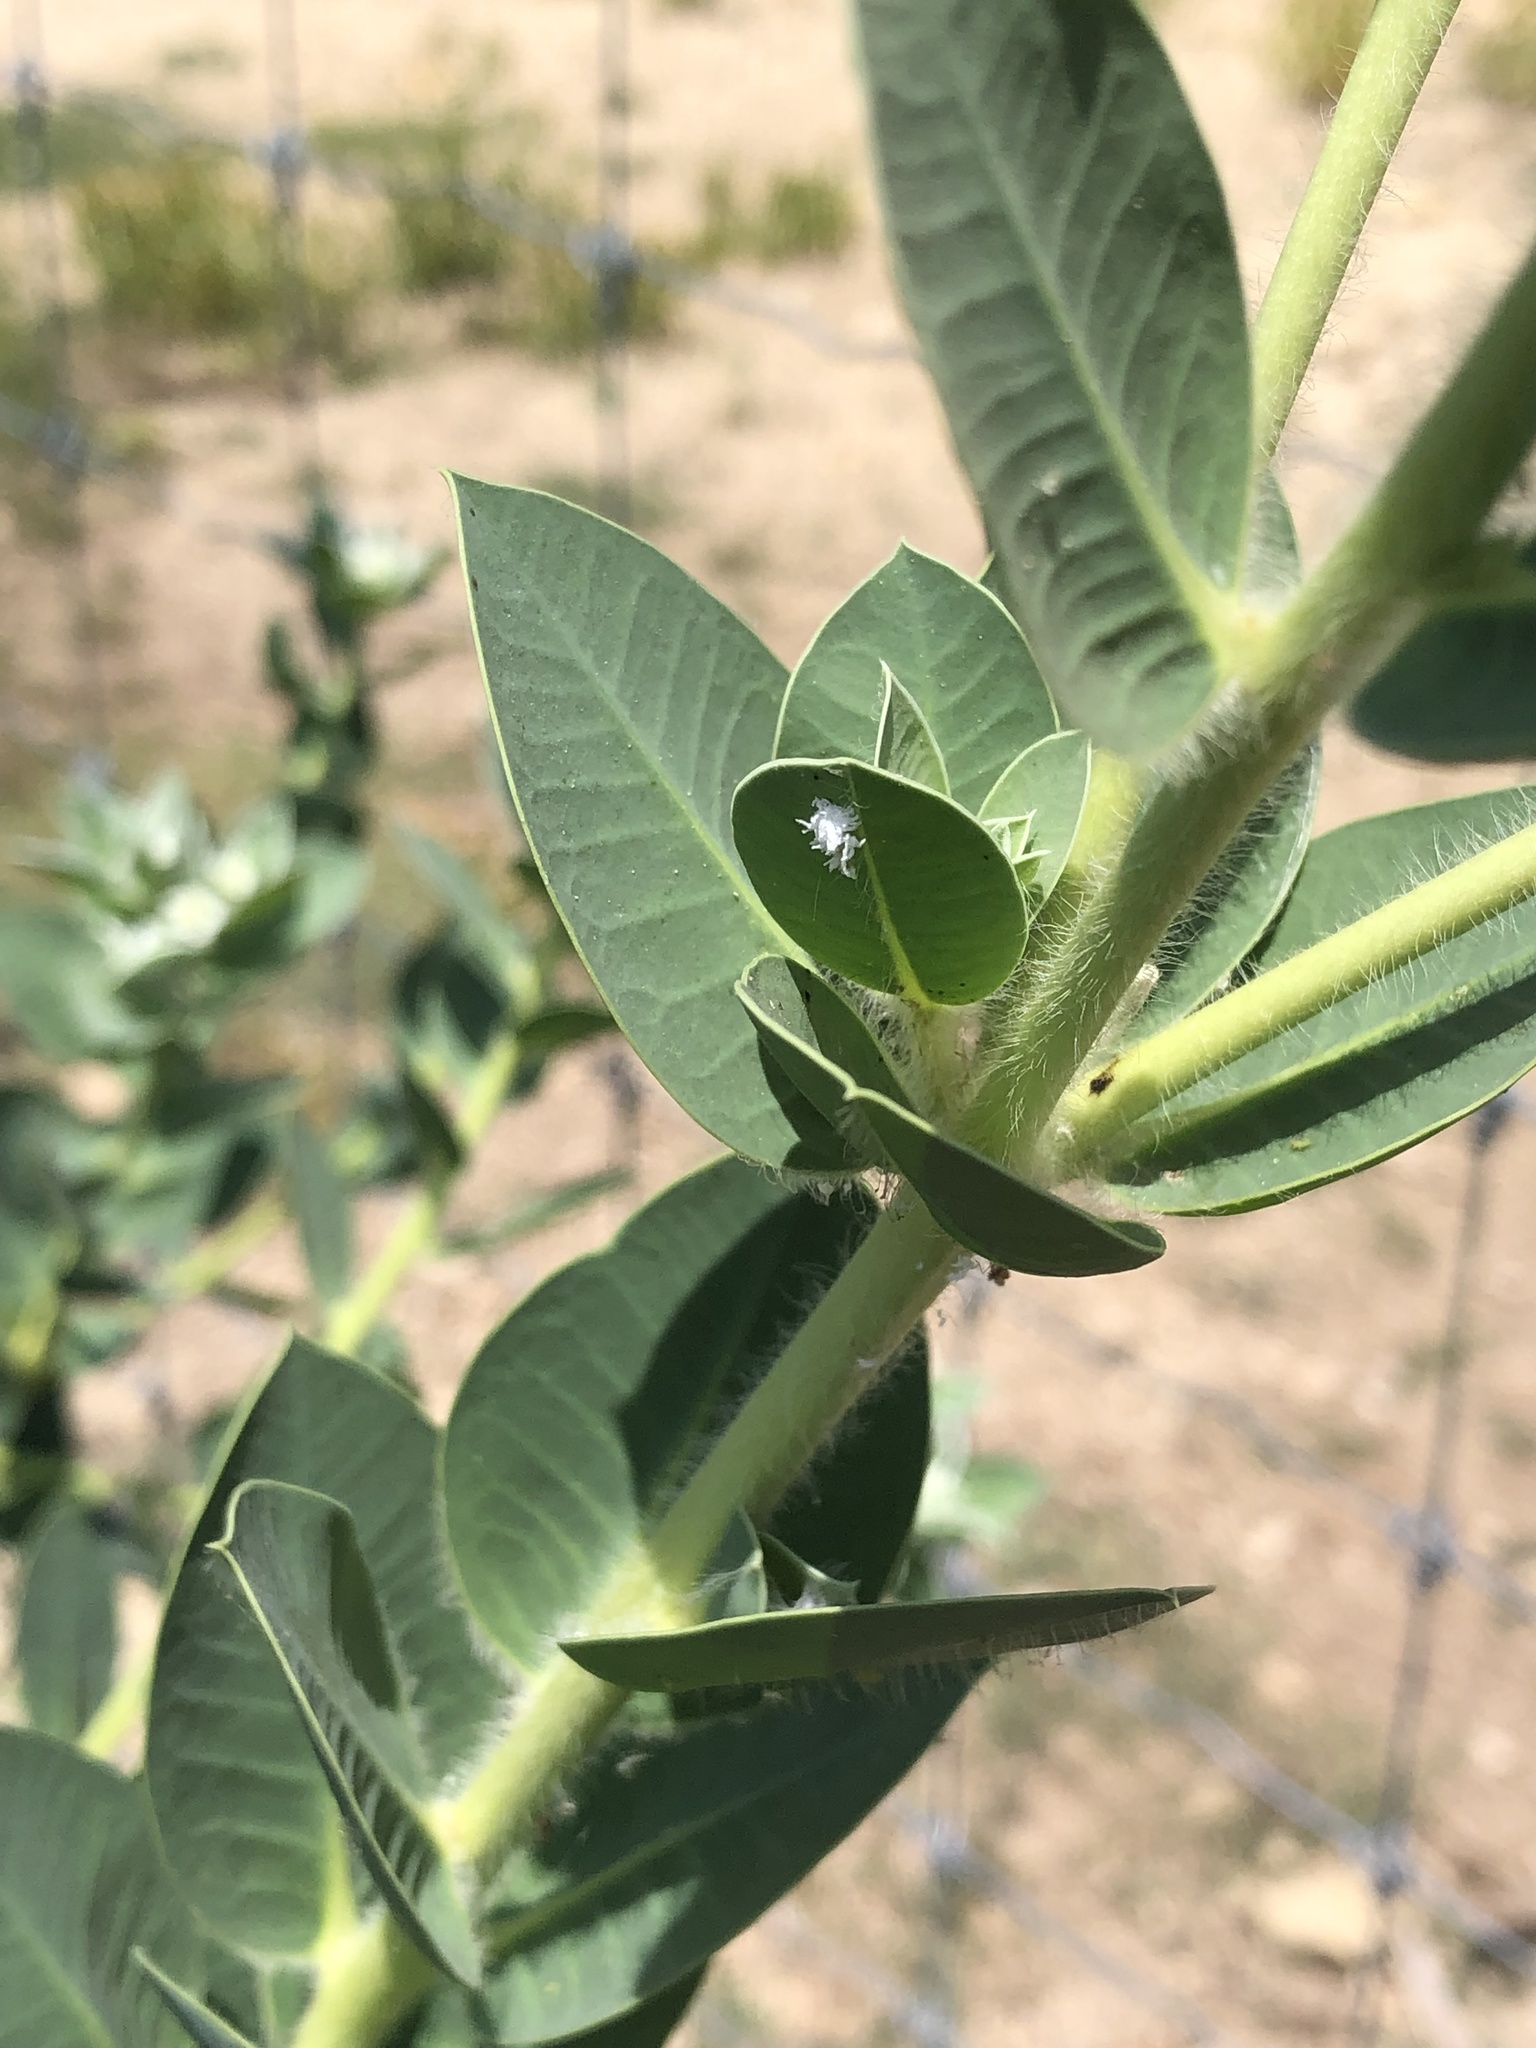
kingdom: Plantae
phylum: Tracheophyta
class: Magnoliopsida
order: Malpighiales
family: Euphorbiaceae
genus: Euphorbia
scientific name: Euphorbia marginata
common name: Ghostweed
